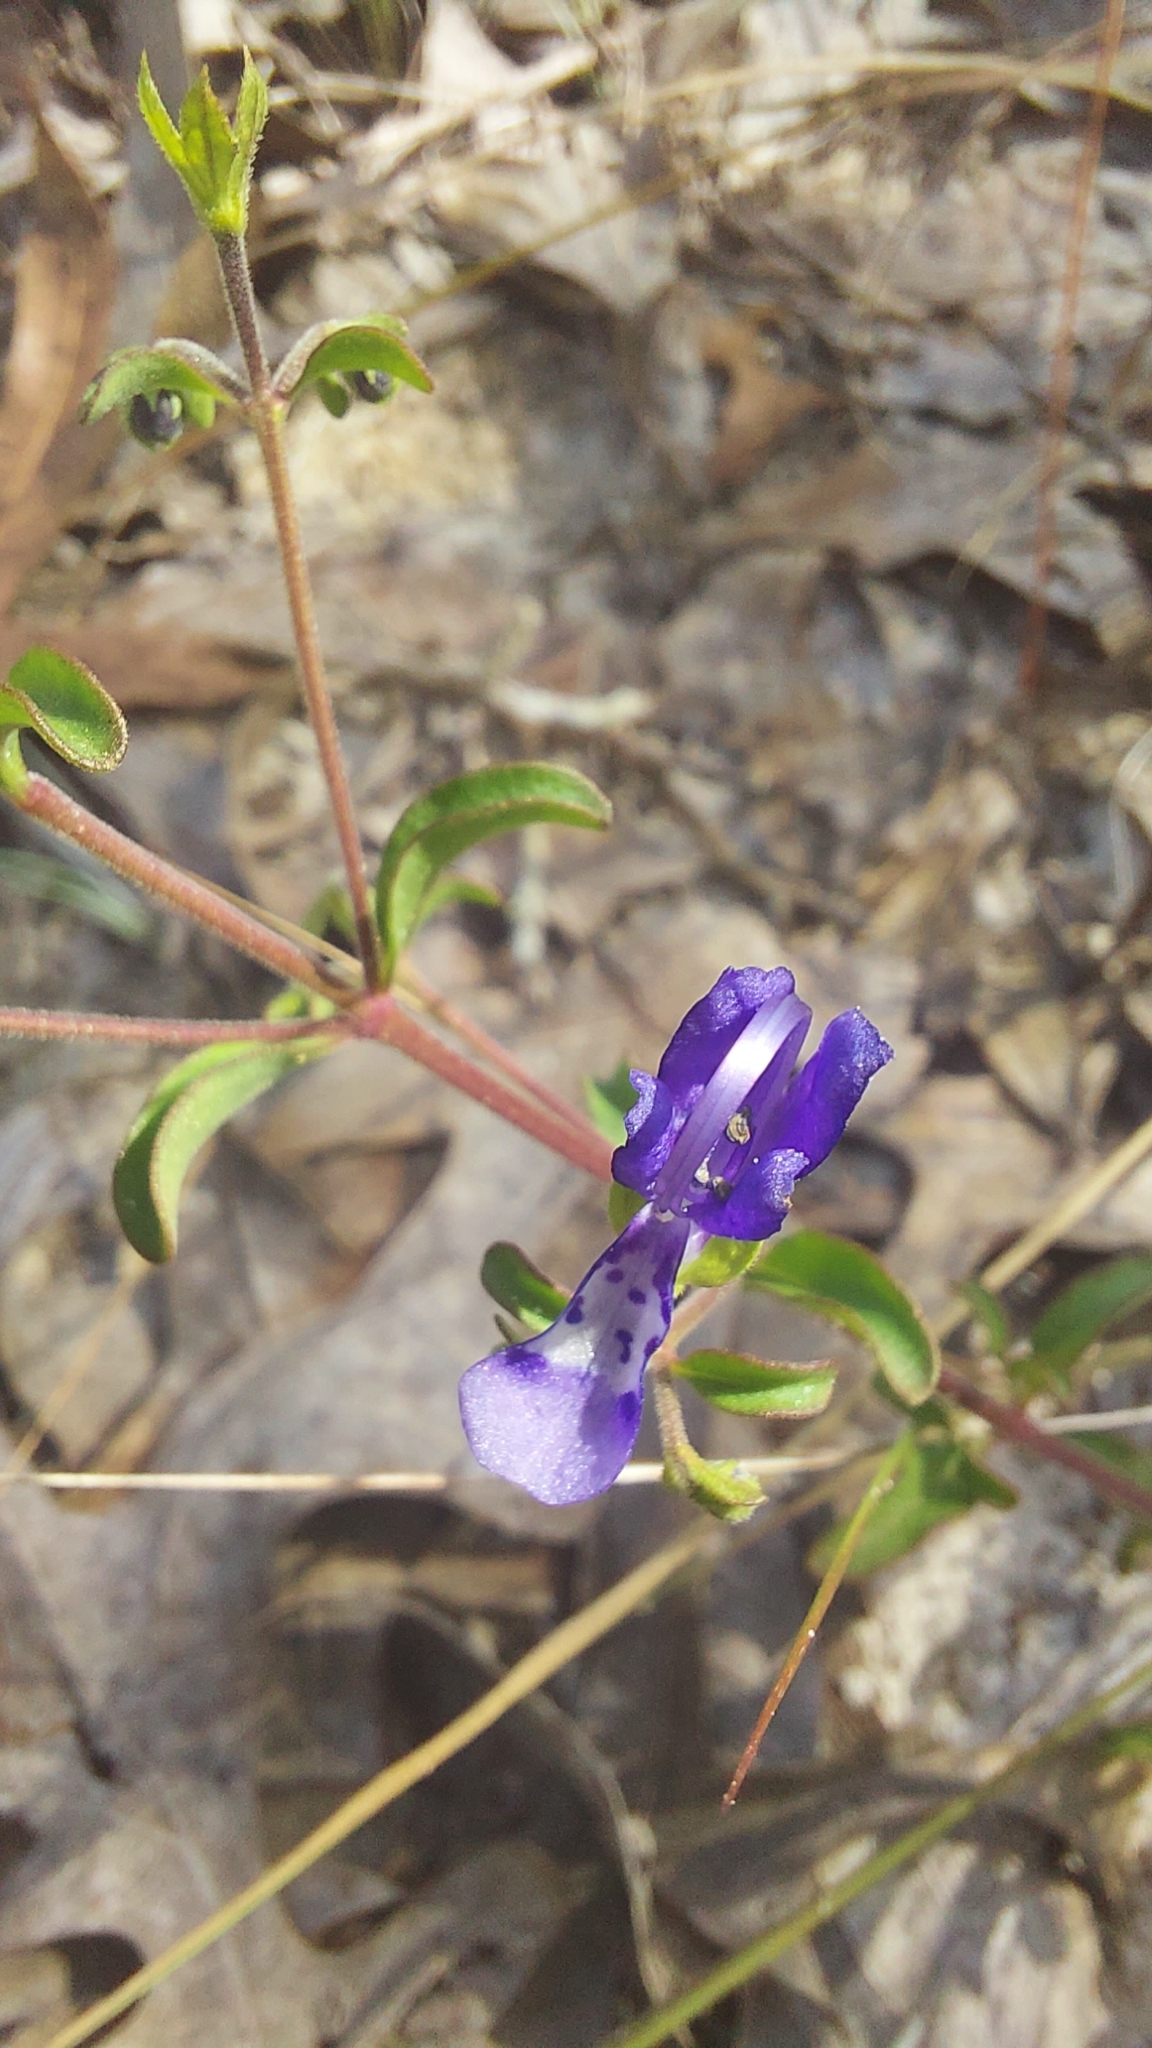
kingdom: Plantae
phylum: Tracheophyta
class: Magnoliopsida
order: Lamiales
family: Lamiaceae
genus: Trichostema
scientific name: Trichostema microphyllum
